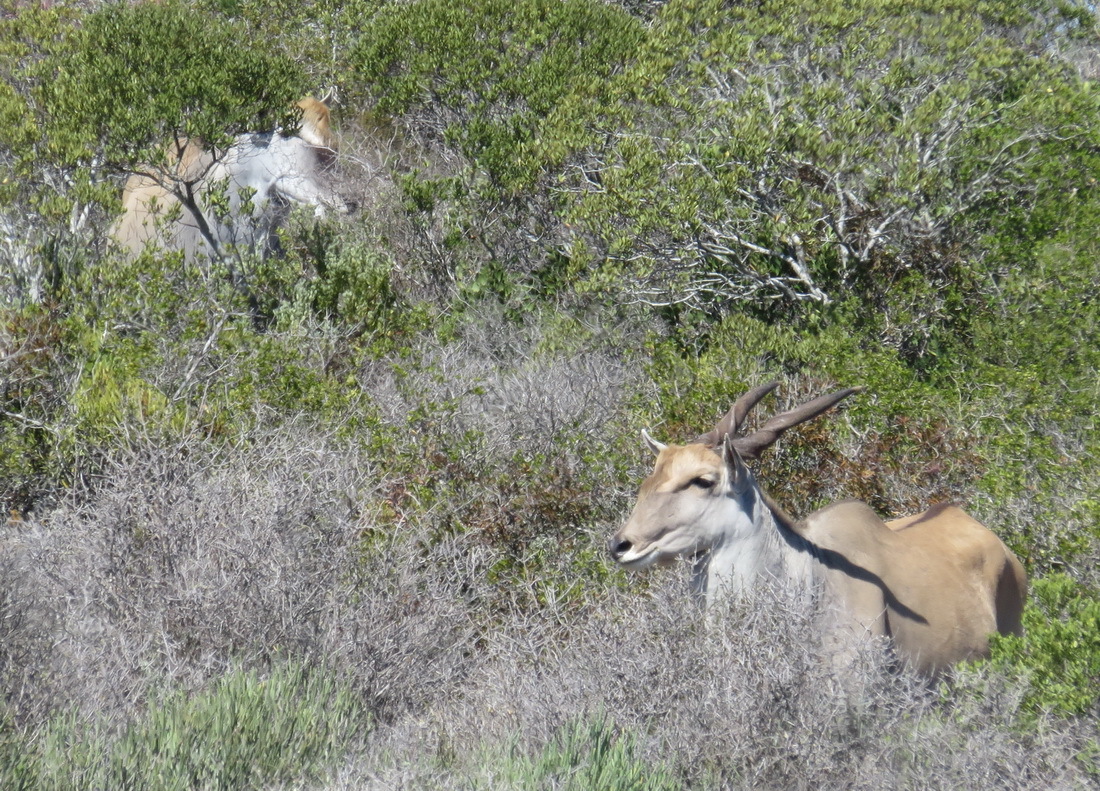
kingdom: Animalia
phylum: Chordata
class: Mammalia
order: Artiodactyla
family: Bovidae
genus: Taurotragus
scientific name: Taurotragus oryx
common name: Common eland
